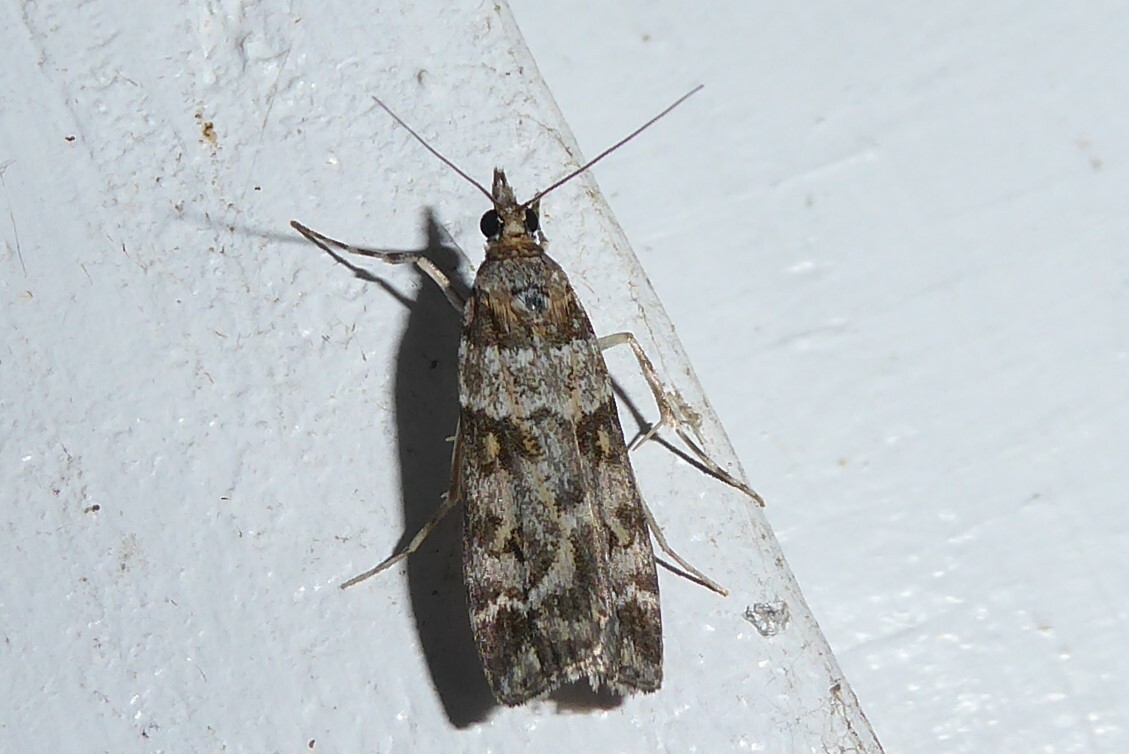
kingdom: Animalia
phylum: Arthropoda
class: Insecta
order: Lepidoptera
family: Crambidae
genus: Scoparia
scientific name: Scoparia tetracycla
